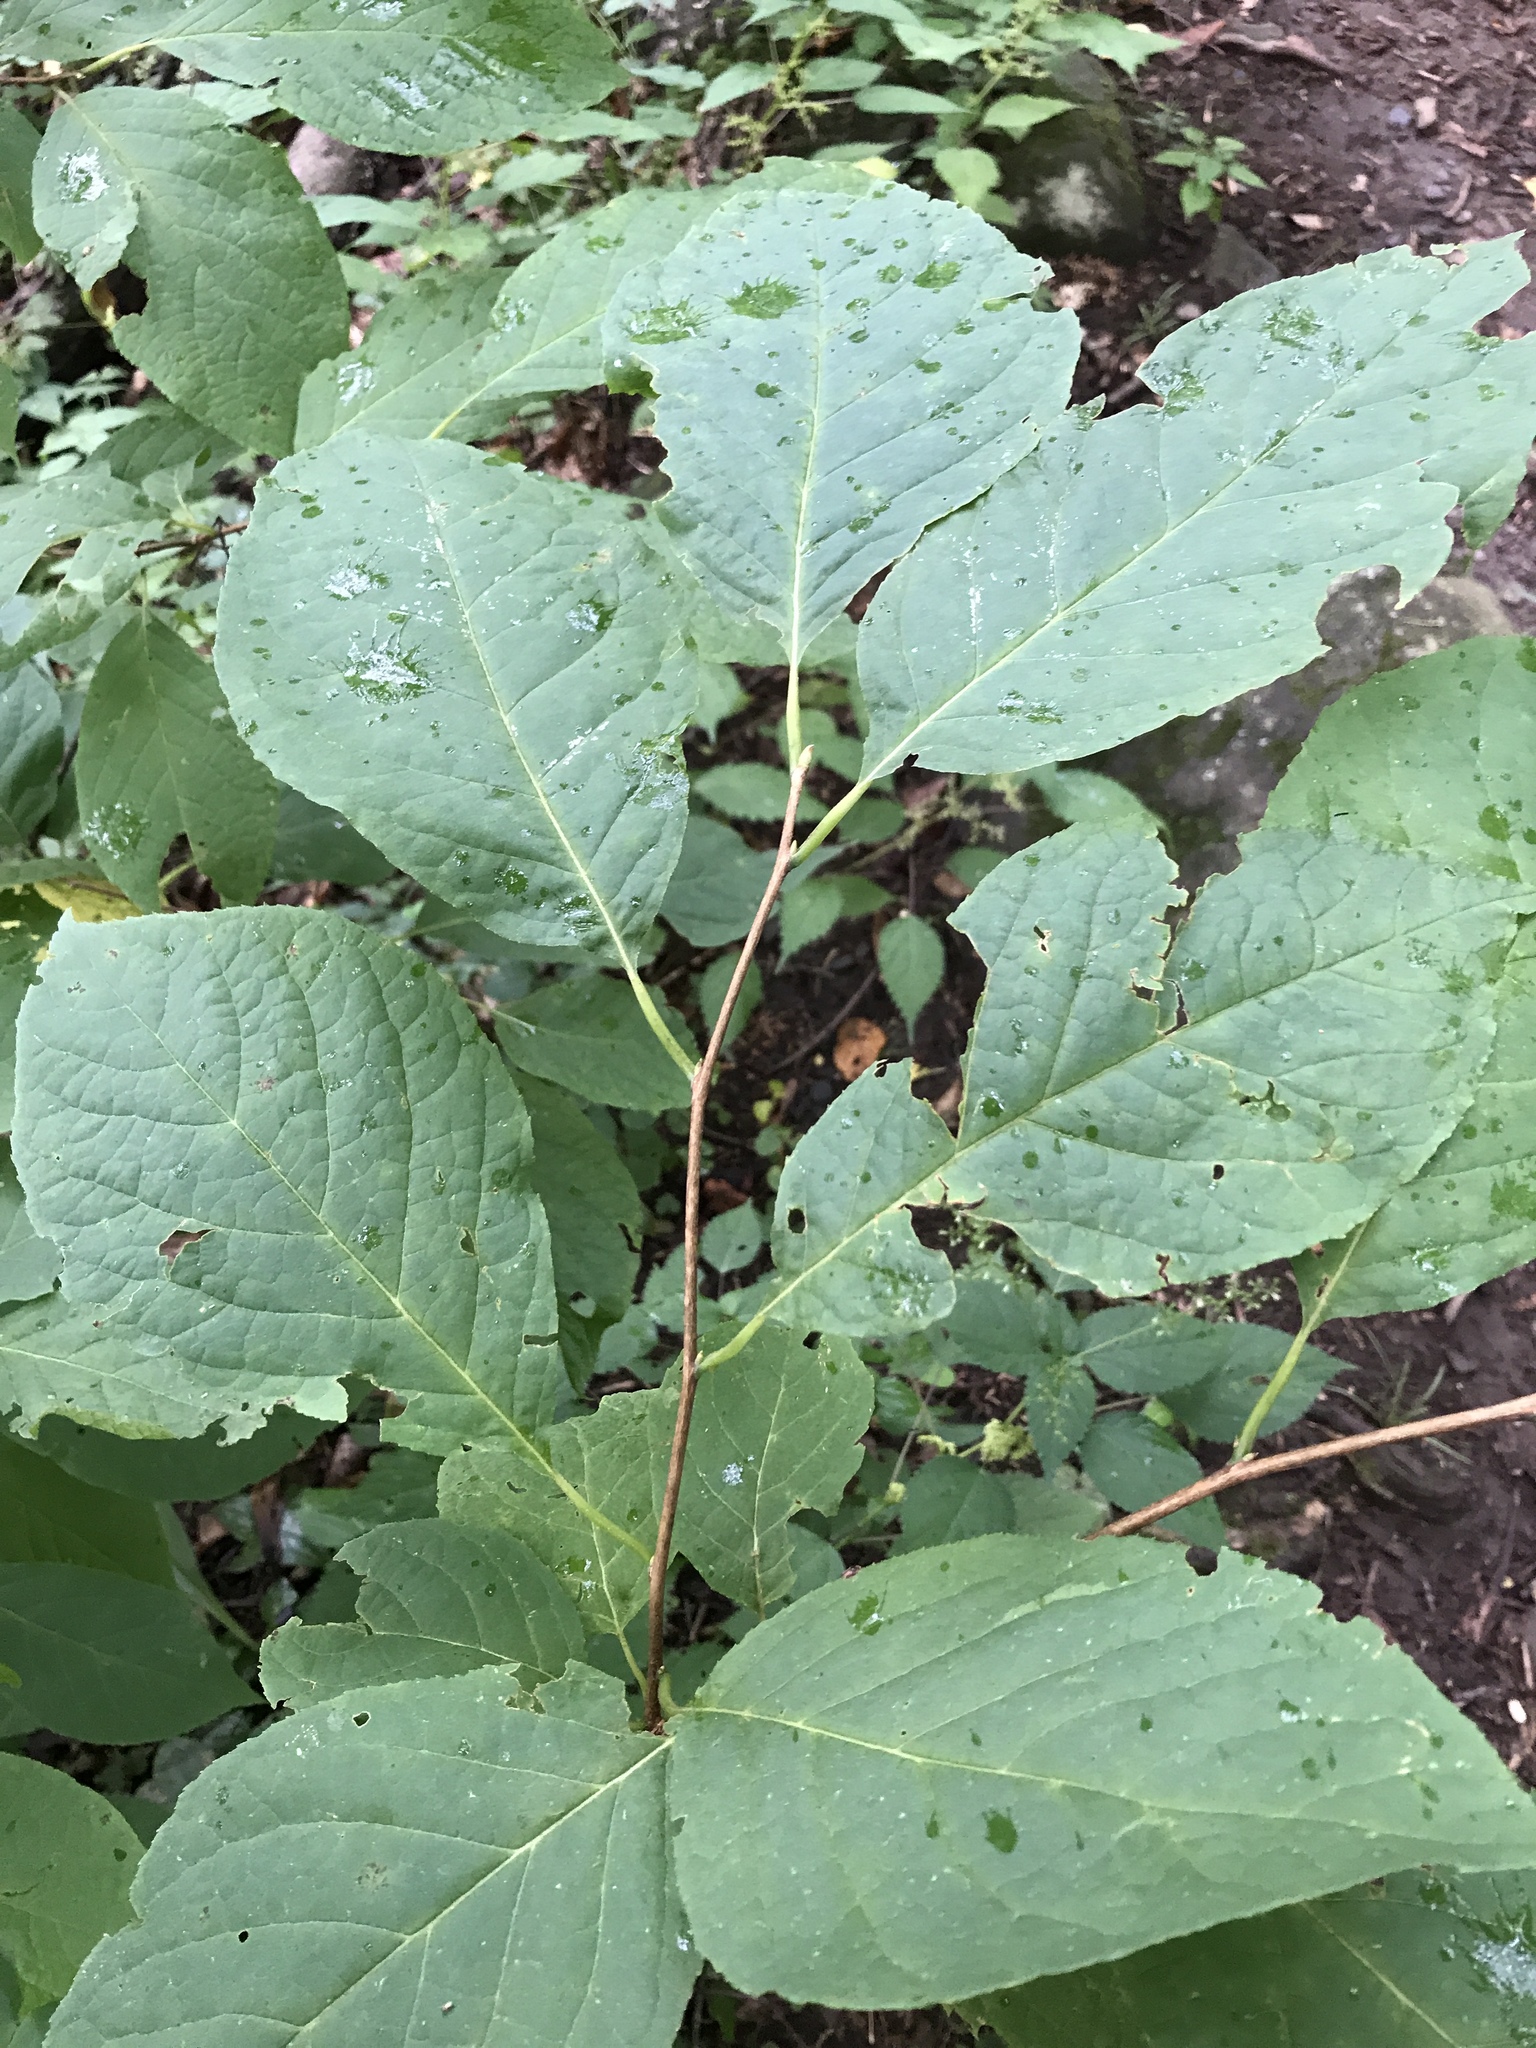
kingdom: Plantae
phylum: Tracheophyta
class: Magnoliopsida
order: Ericales
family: Styracaceae
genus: Halesia
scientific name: Halesia tetraptera
